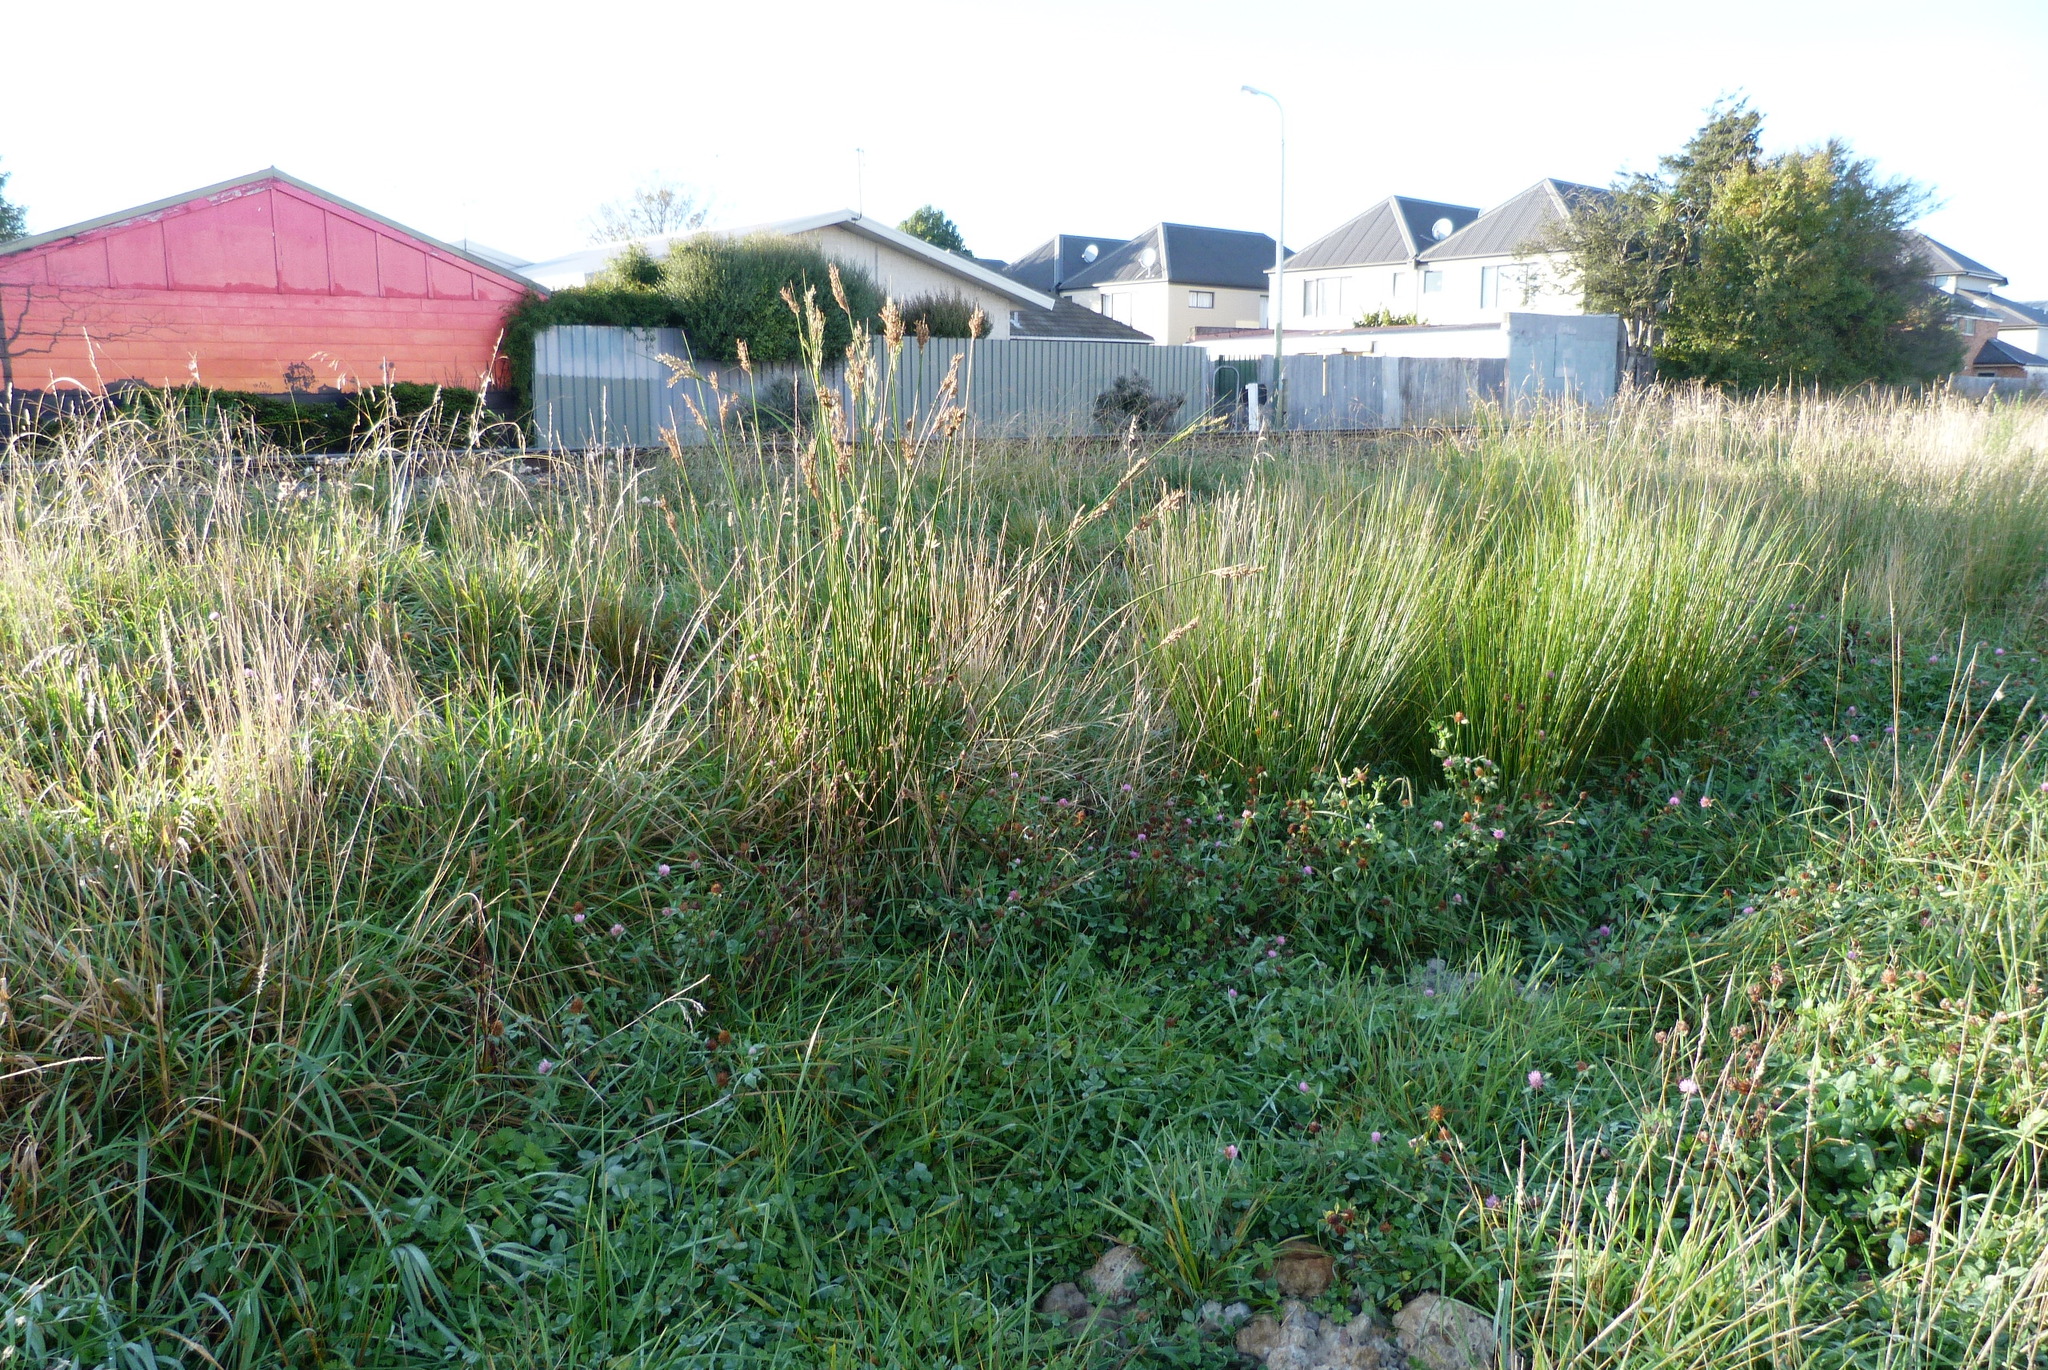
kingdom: Plantae
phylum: Tracheophyta
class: Liliopsida
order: Poales
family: Juncaceae
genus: Juncus
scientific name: Juncus pallidus
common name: Great soft-rush
